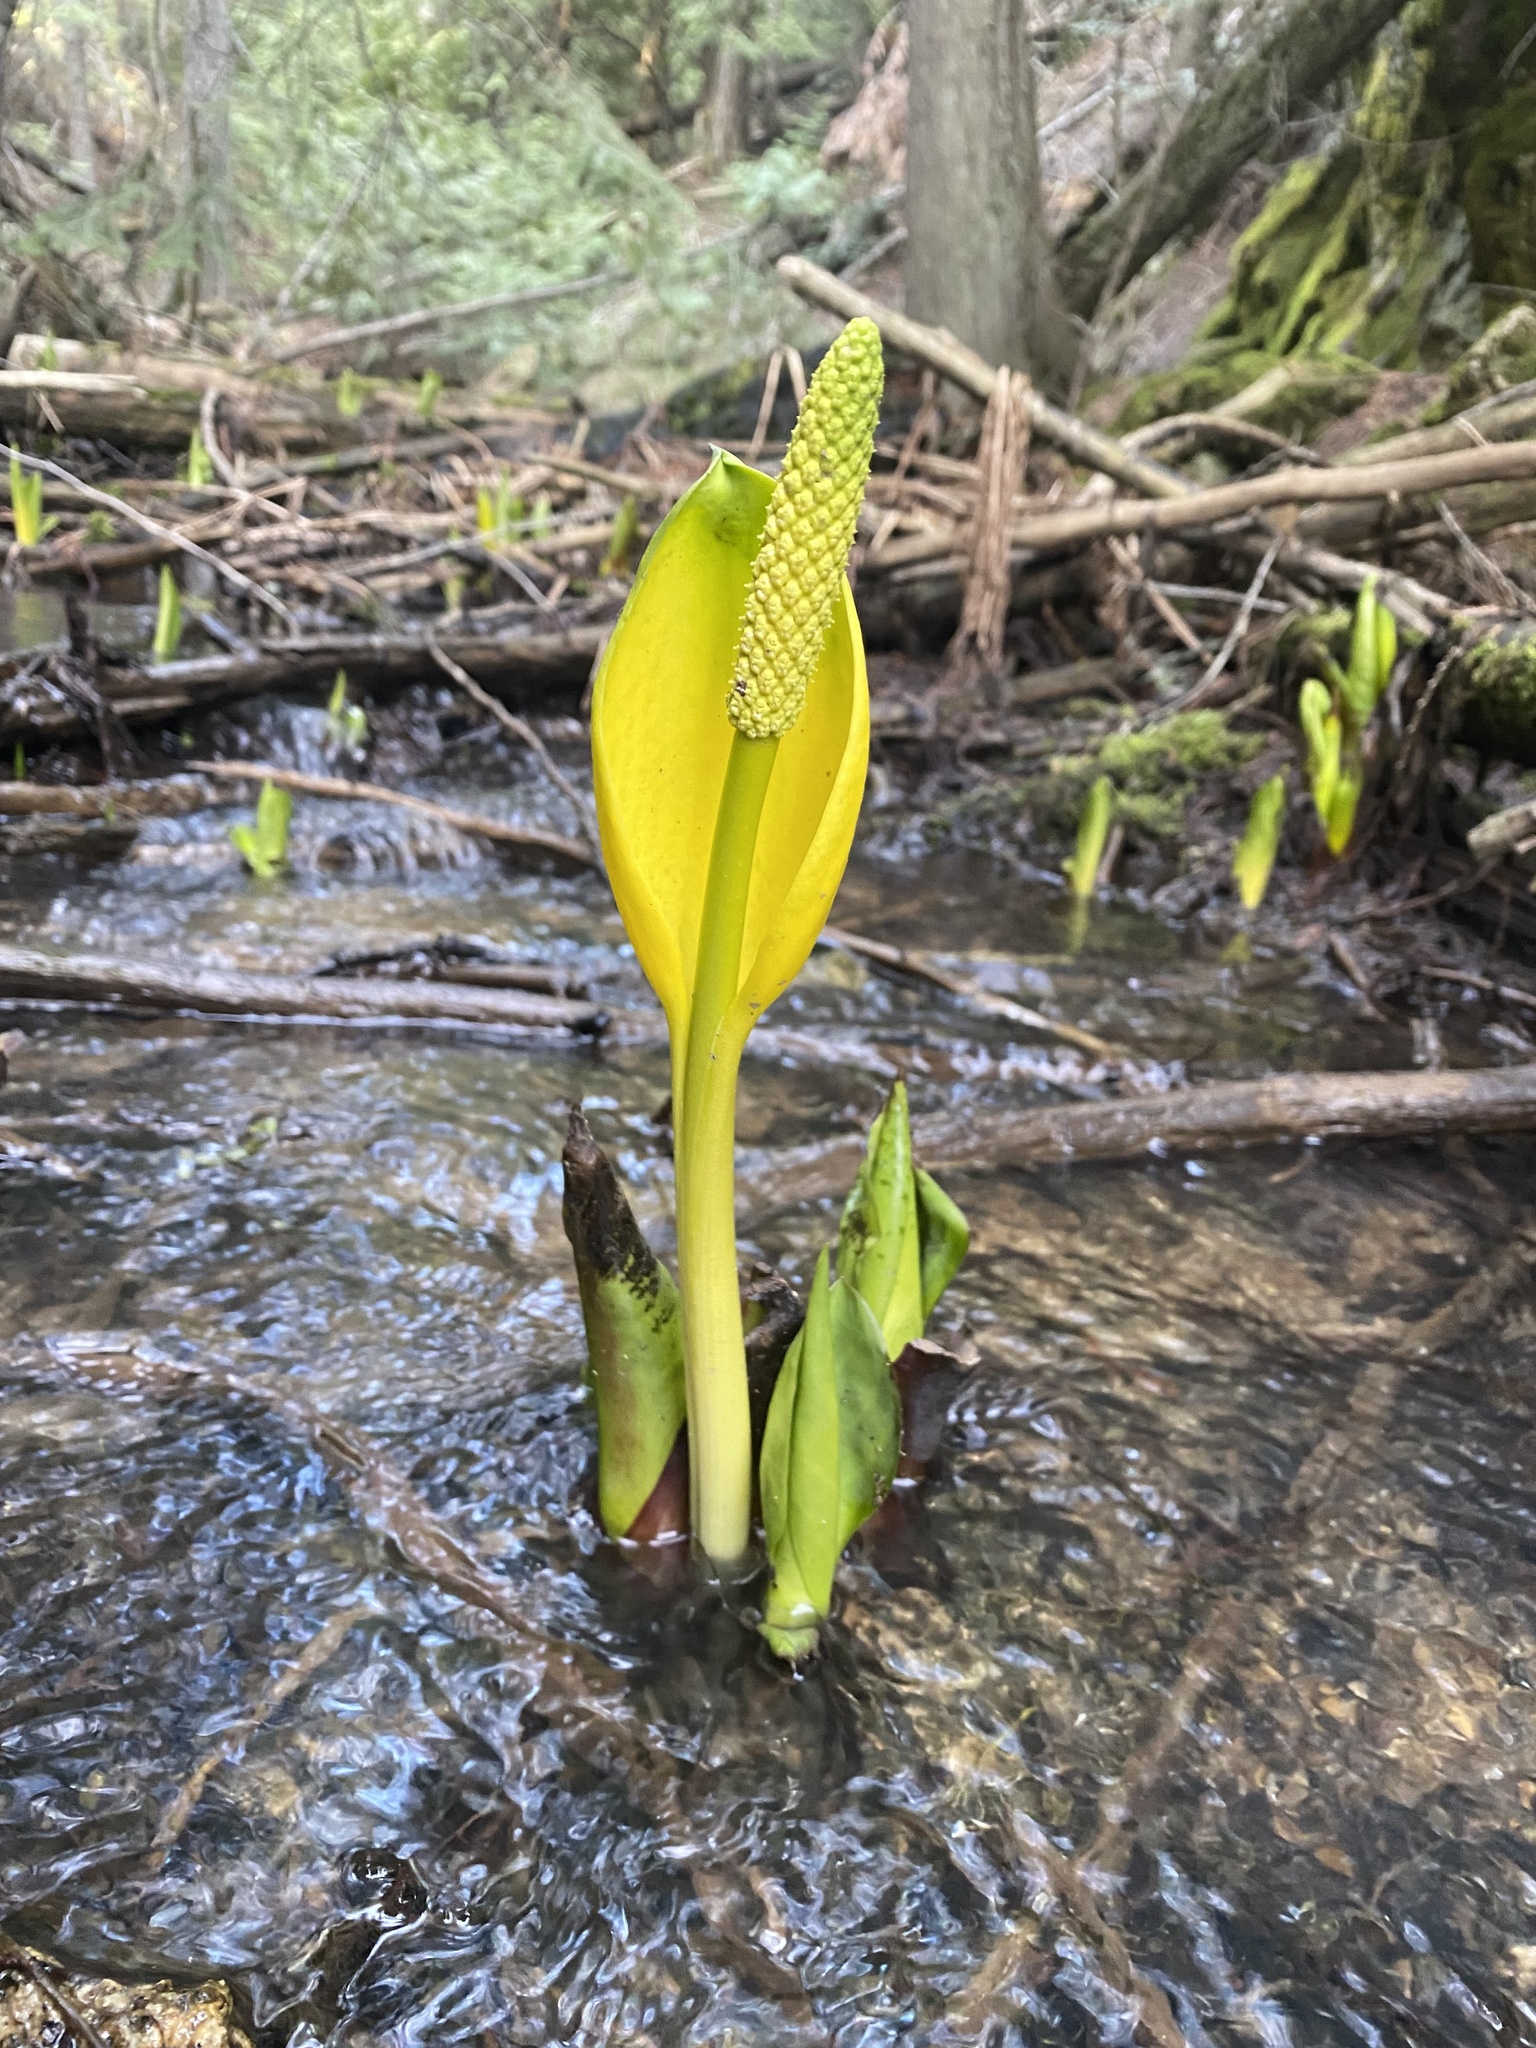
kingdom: Plantae
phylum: Tracheophyta
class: Liliopsida
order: Alismatales
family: Araceae
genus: Lysichiton
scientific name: Lysichiton americanus
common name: American skunk cabbage
